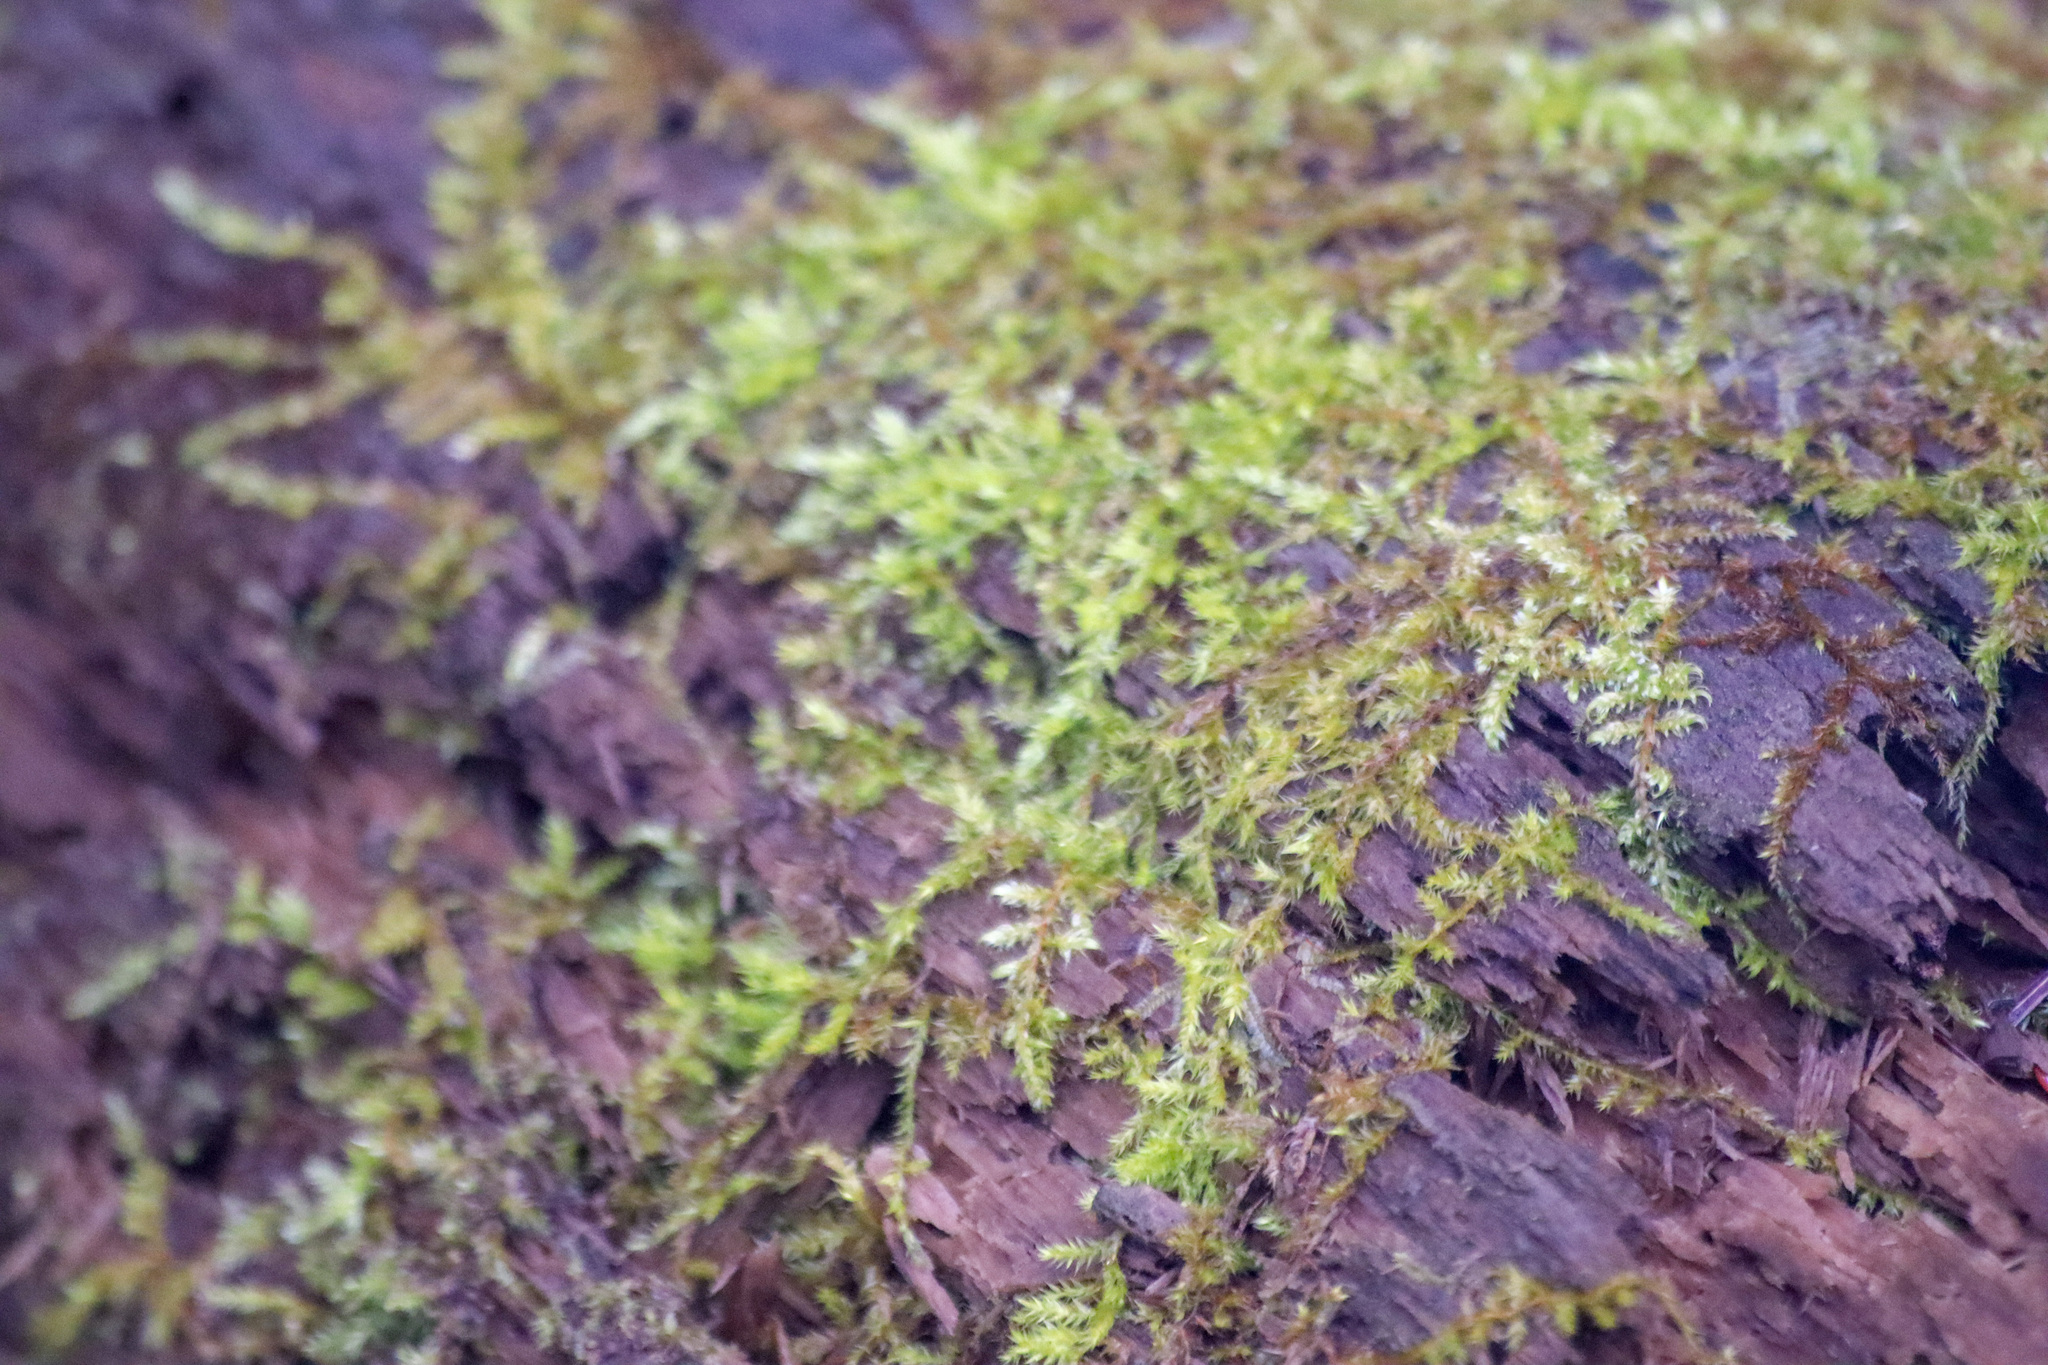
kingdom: Plantae
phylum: Bryophyta
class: Bryopsida
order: Hypnales
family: Callicladiaceae
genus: Callicladium
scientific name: Callicladium haldanianum
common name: Beautiful branch moss
